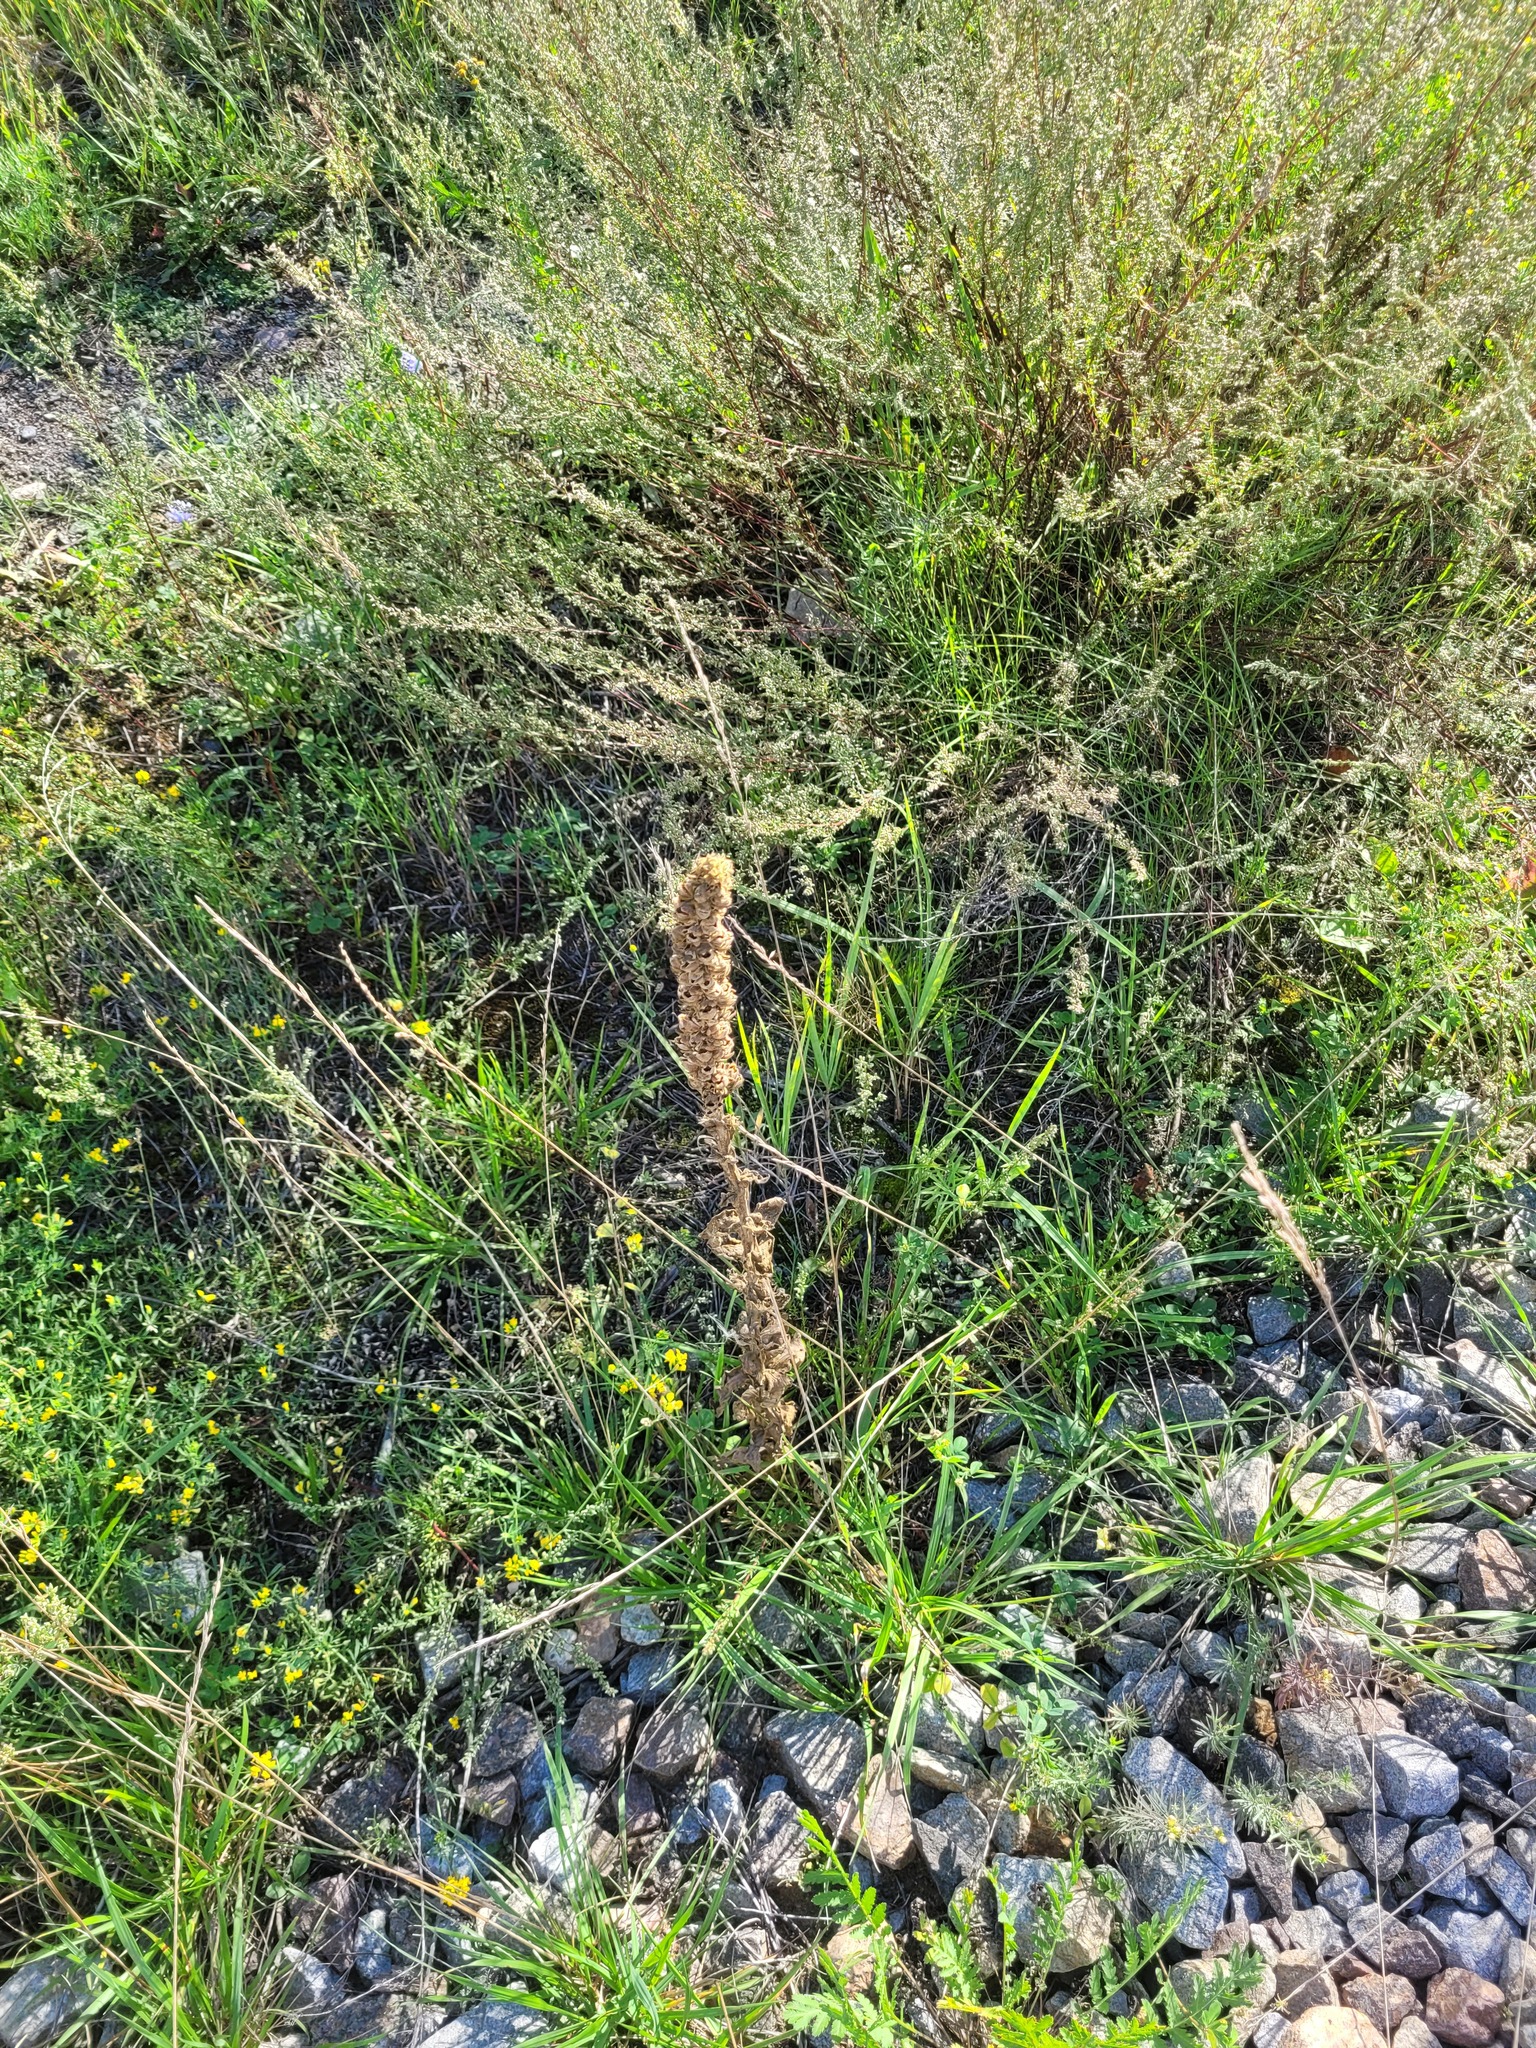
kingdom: Plantae
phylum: Tracheophyta
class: Magnoliopsida
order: Lamiales
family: Scrophulariaceae
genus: Verbascum
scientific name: Verbascum thapsus
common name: Common mullein
